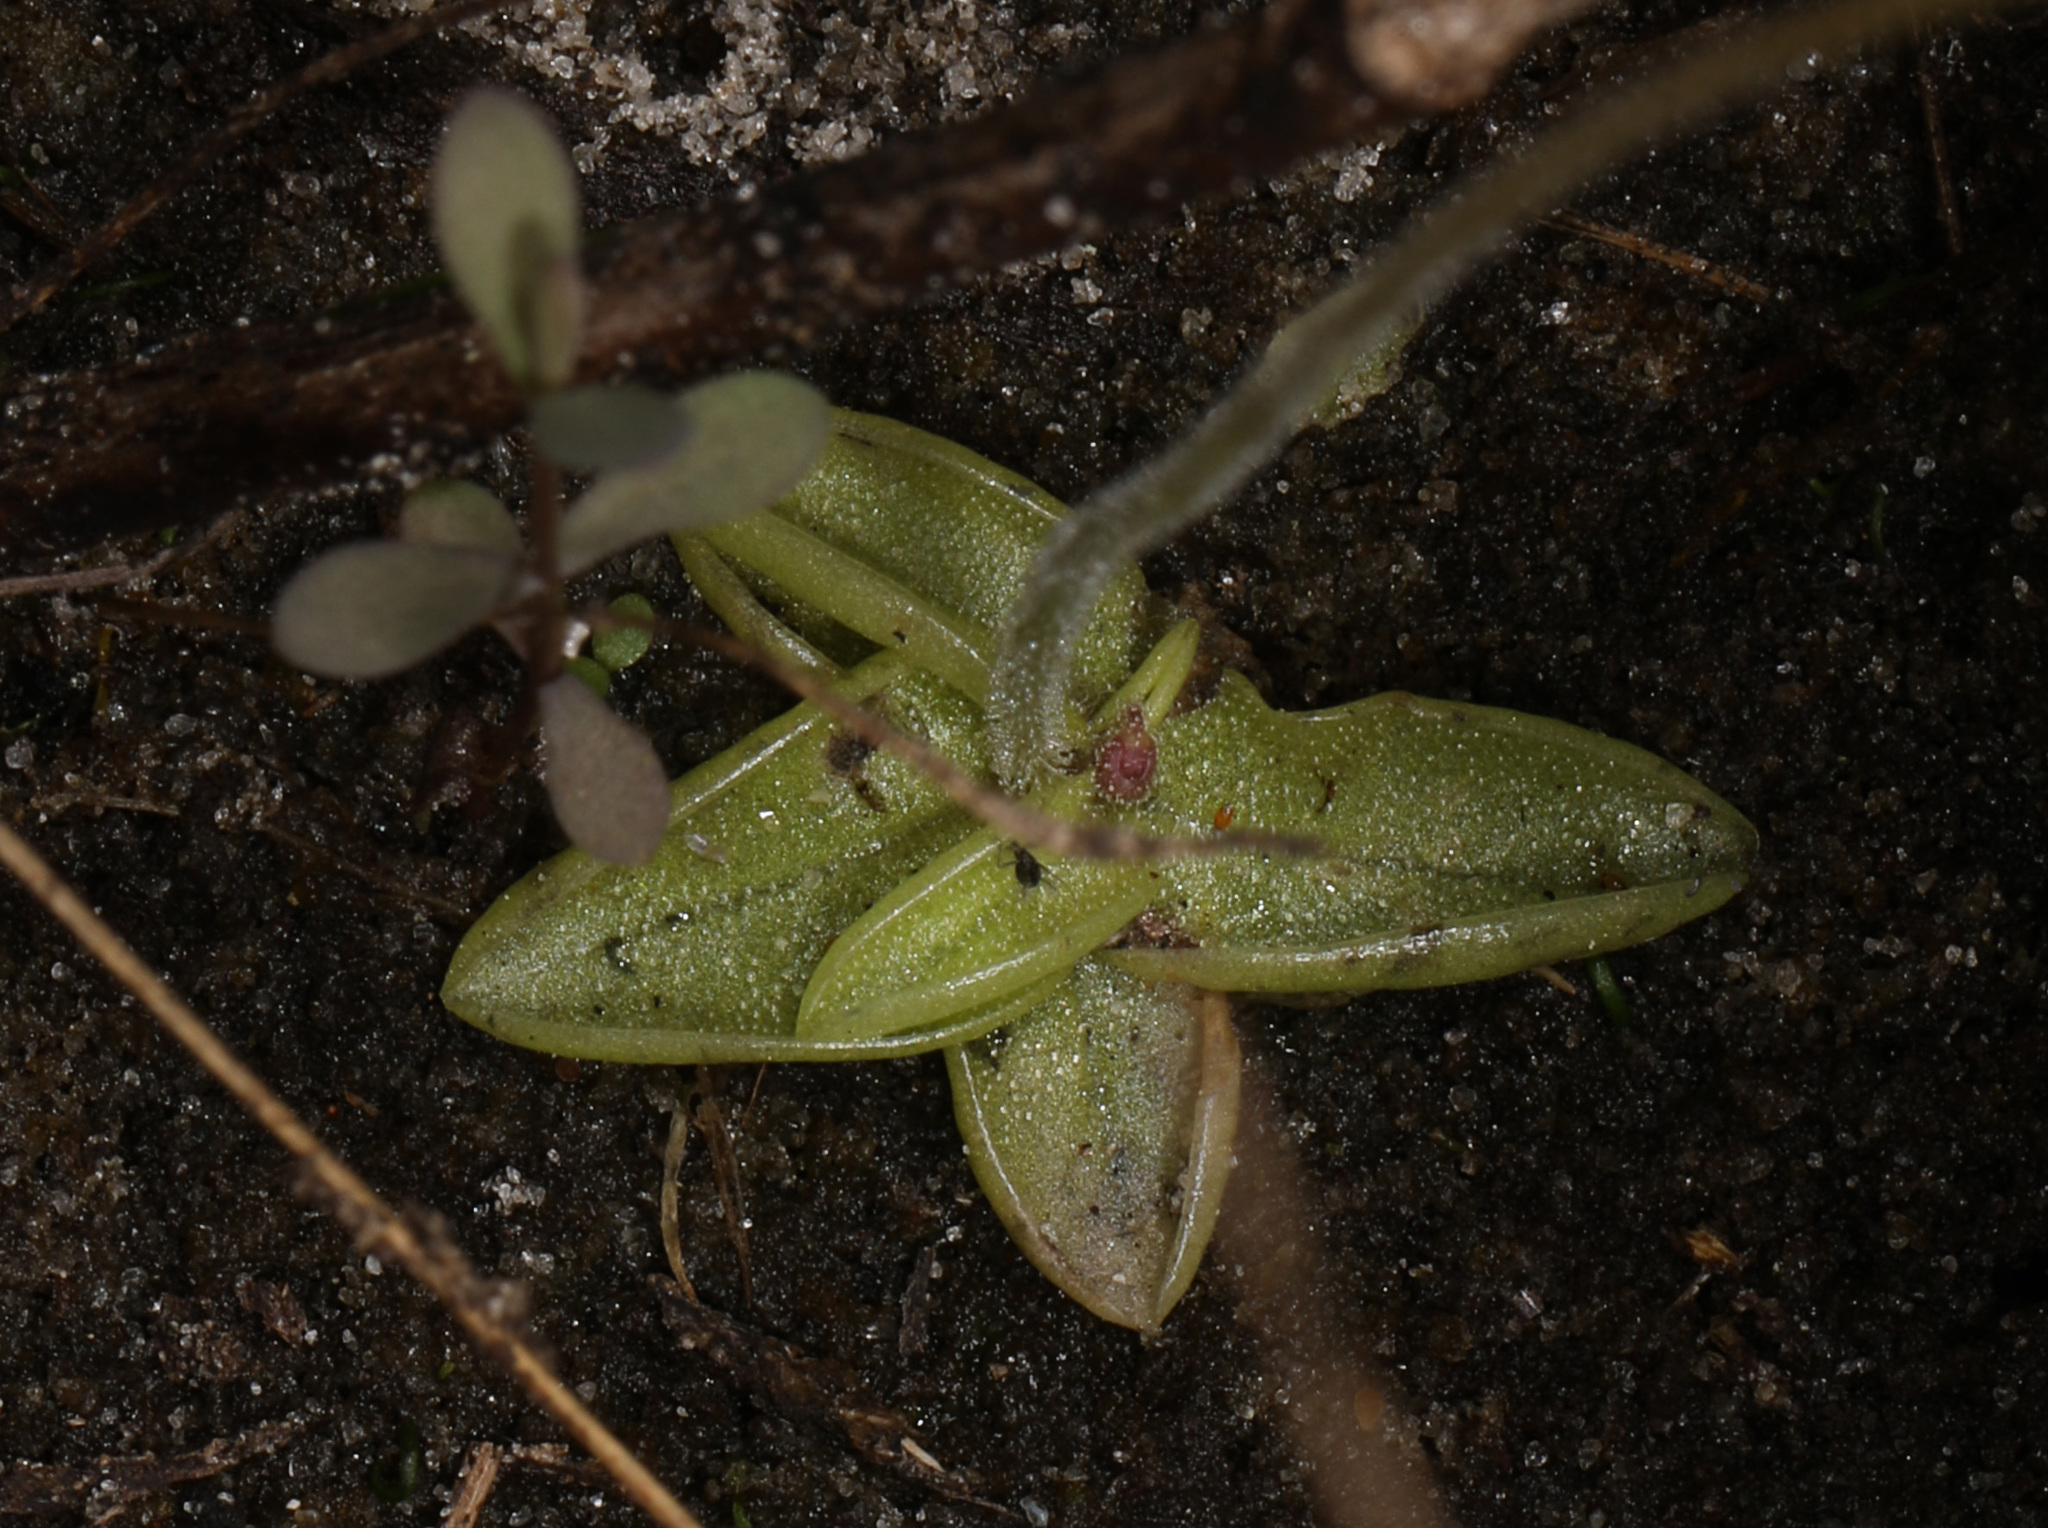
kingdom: Plantae
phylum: Tracheophyta
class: Magnoliopsida
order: Lamiales
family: Lentibulariaceae
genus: Pinguicula
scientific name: Pinguicula pumila
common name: Small butterwort
